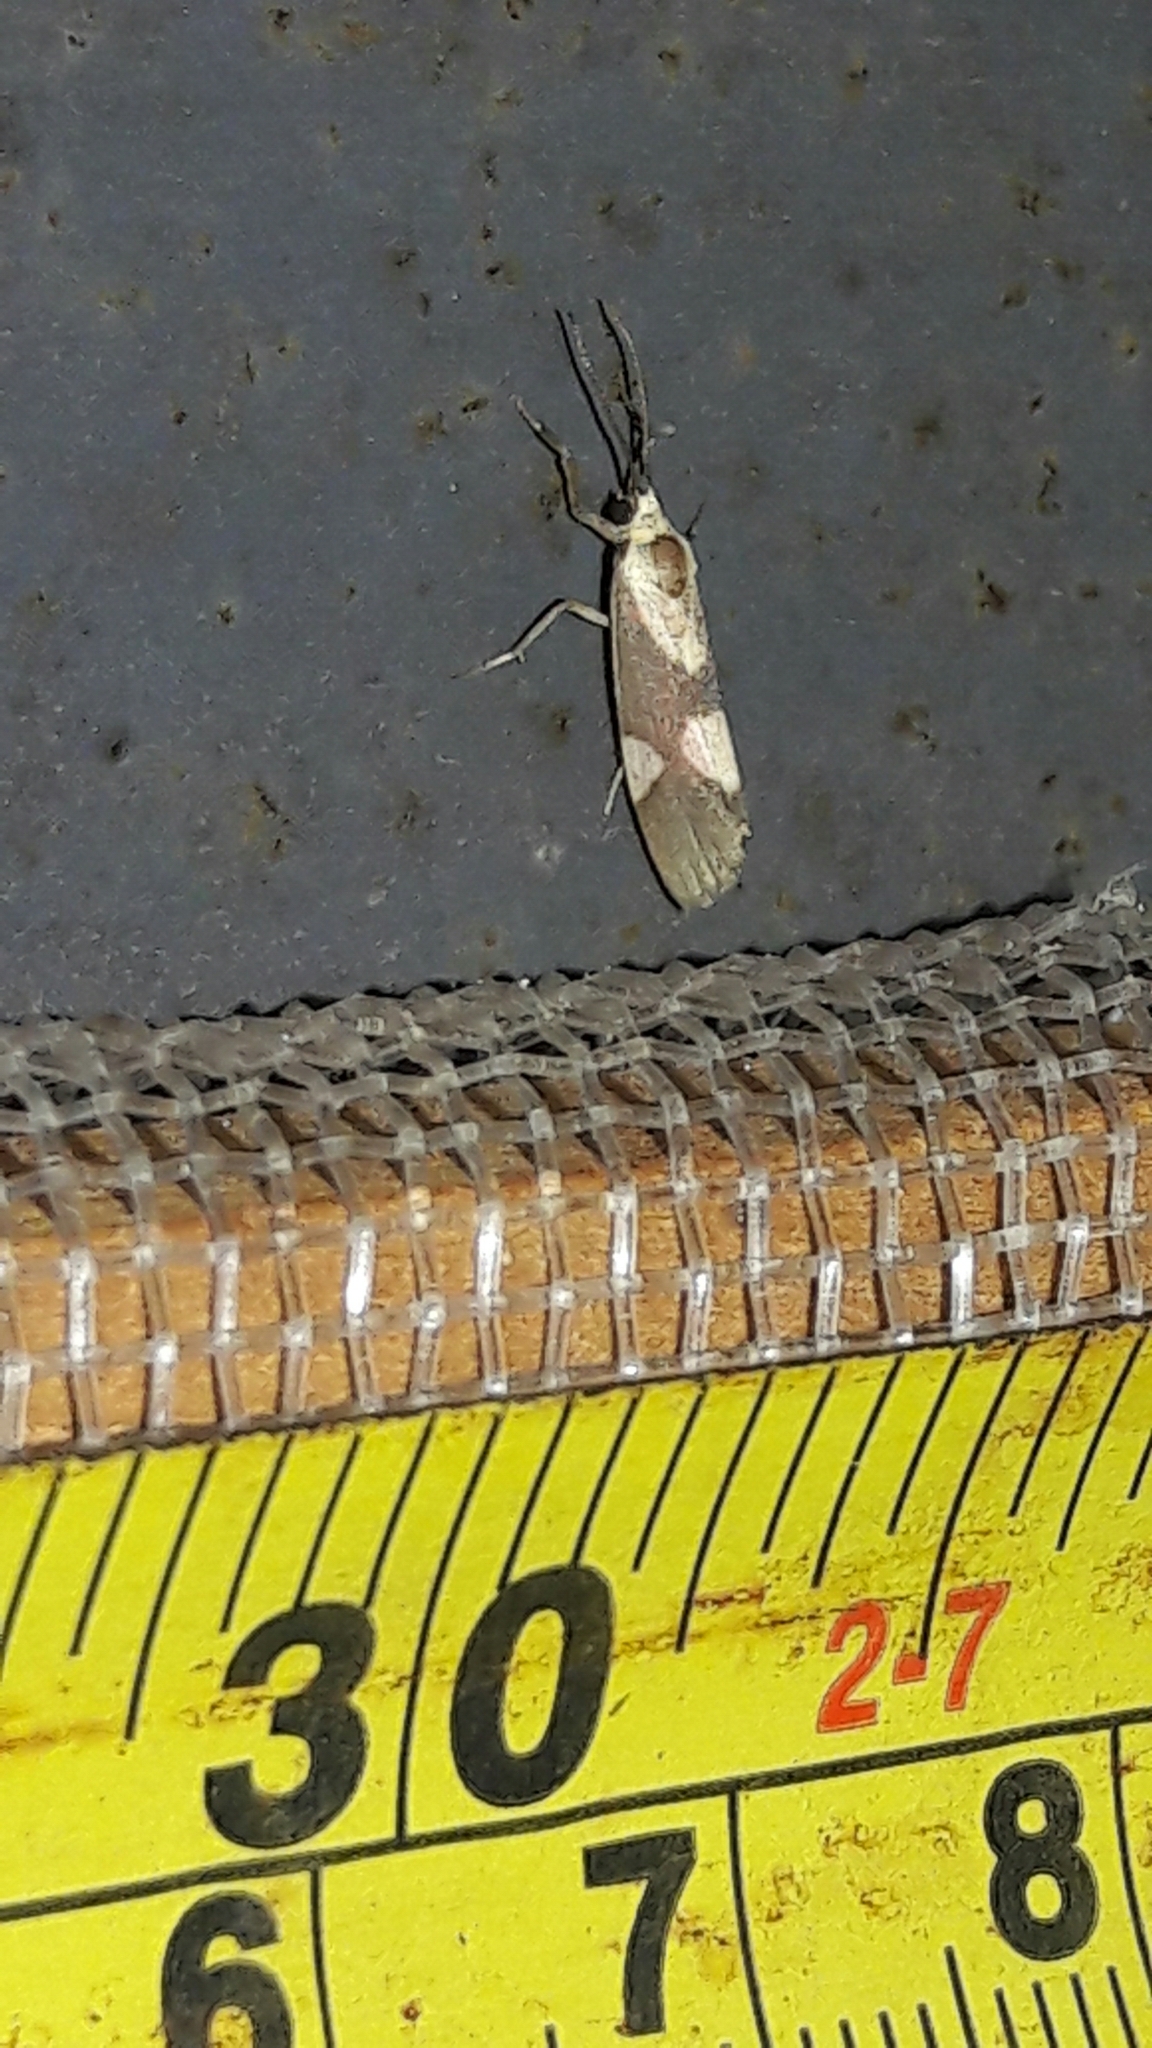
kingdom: Animalia
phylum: Arthropoda
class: Insecta
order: Lepidoptera
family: Erebidae
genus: Cisthene
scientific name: Cisthene persimilis
